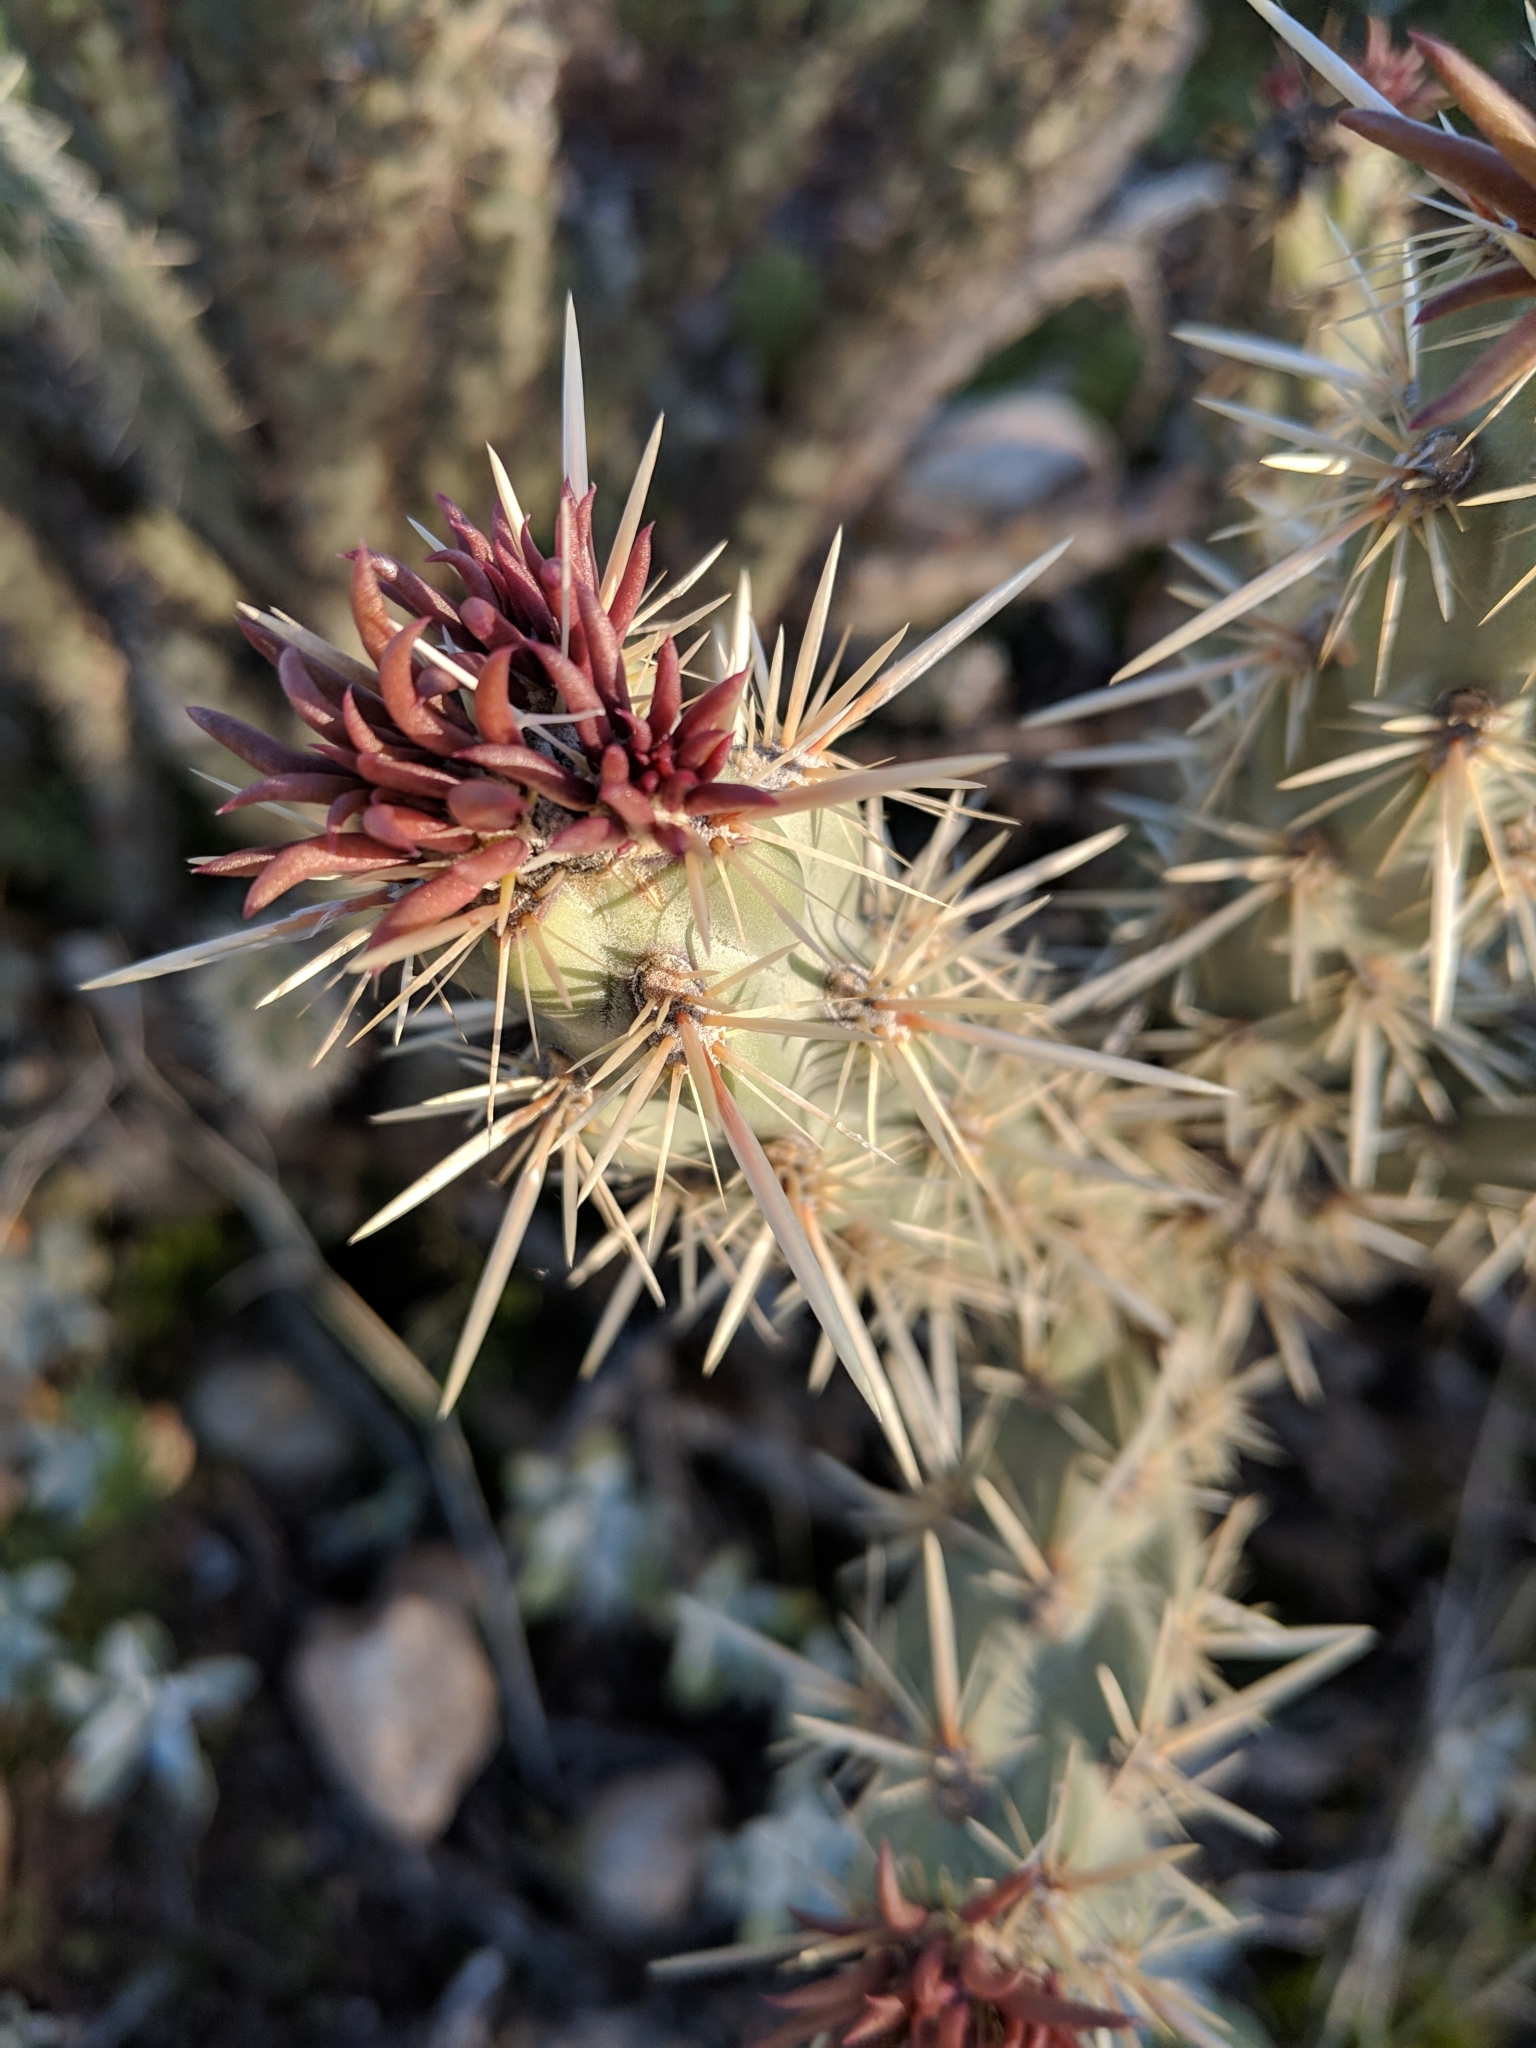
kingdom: Plantae
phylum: Tracheophyta
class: Magnoliopsida
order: Caryophyllales
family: Cactaceae
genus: Cylindropuntia
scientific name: Cylindropuntia acanthocarpa
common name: Buckhorn cholla
